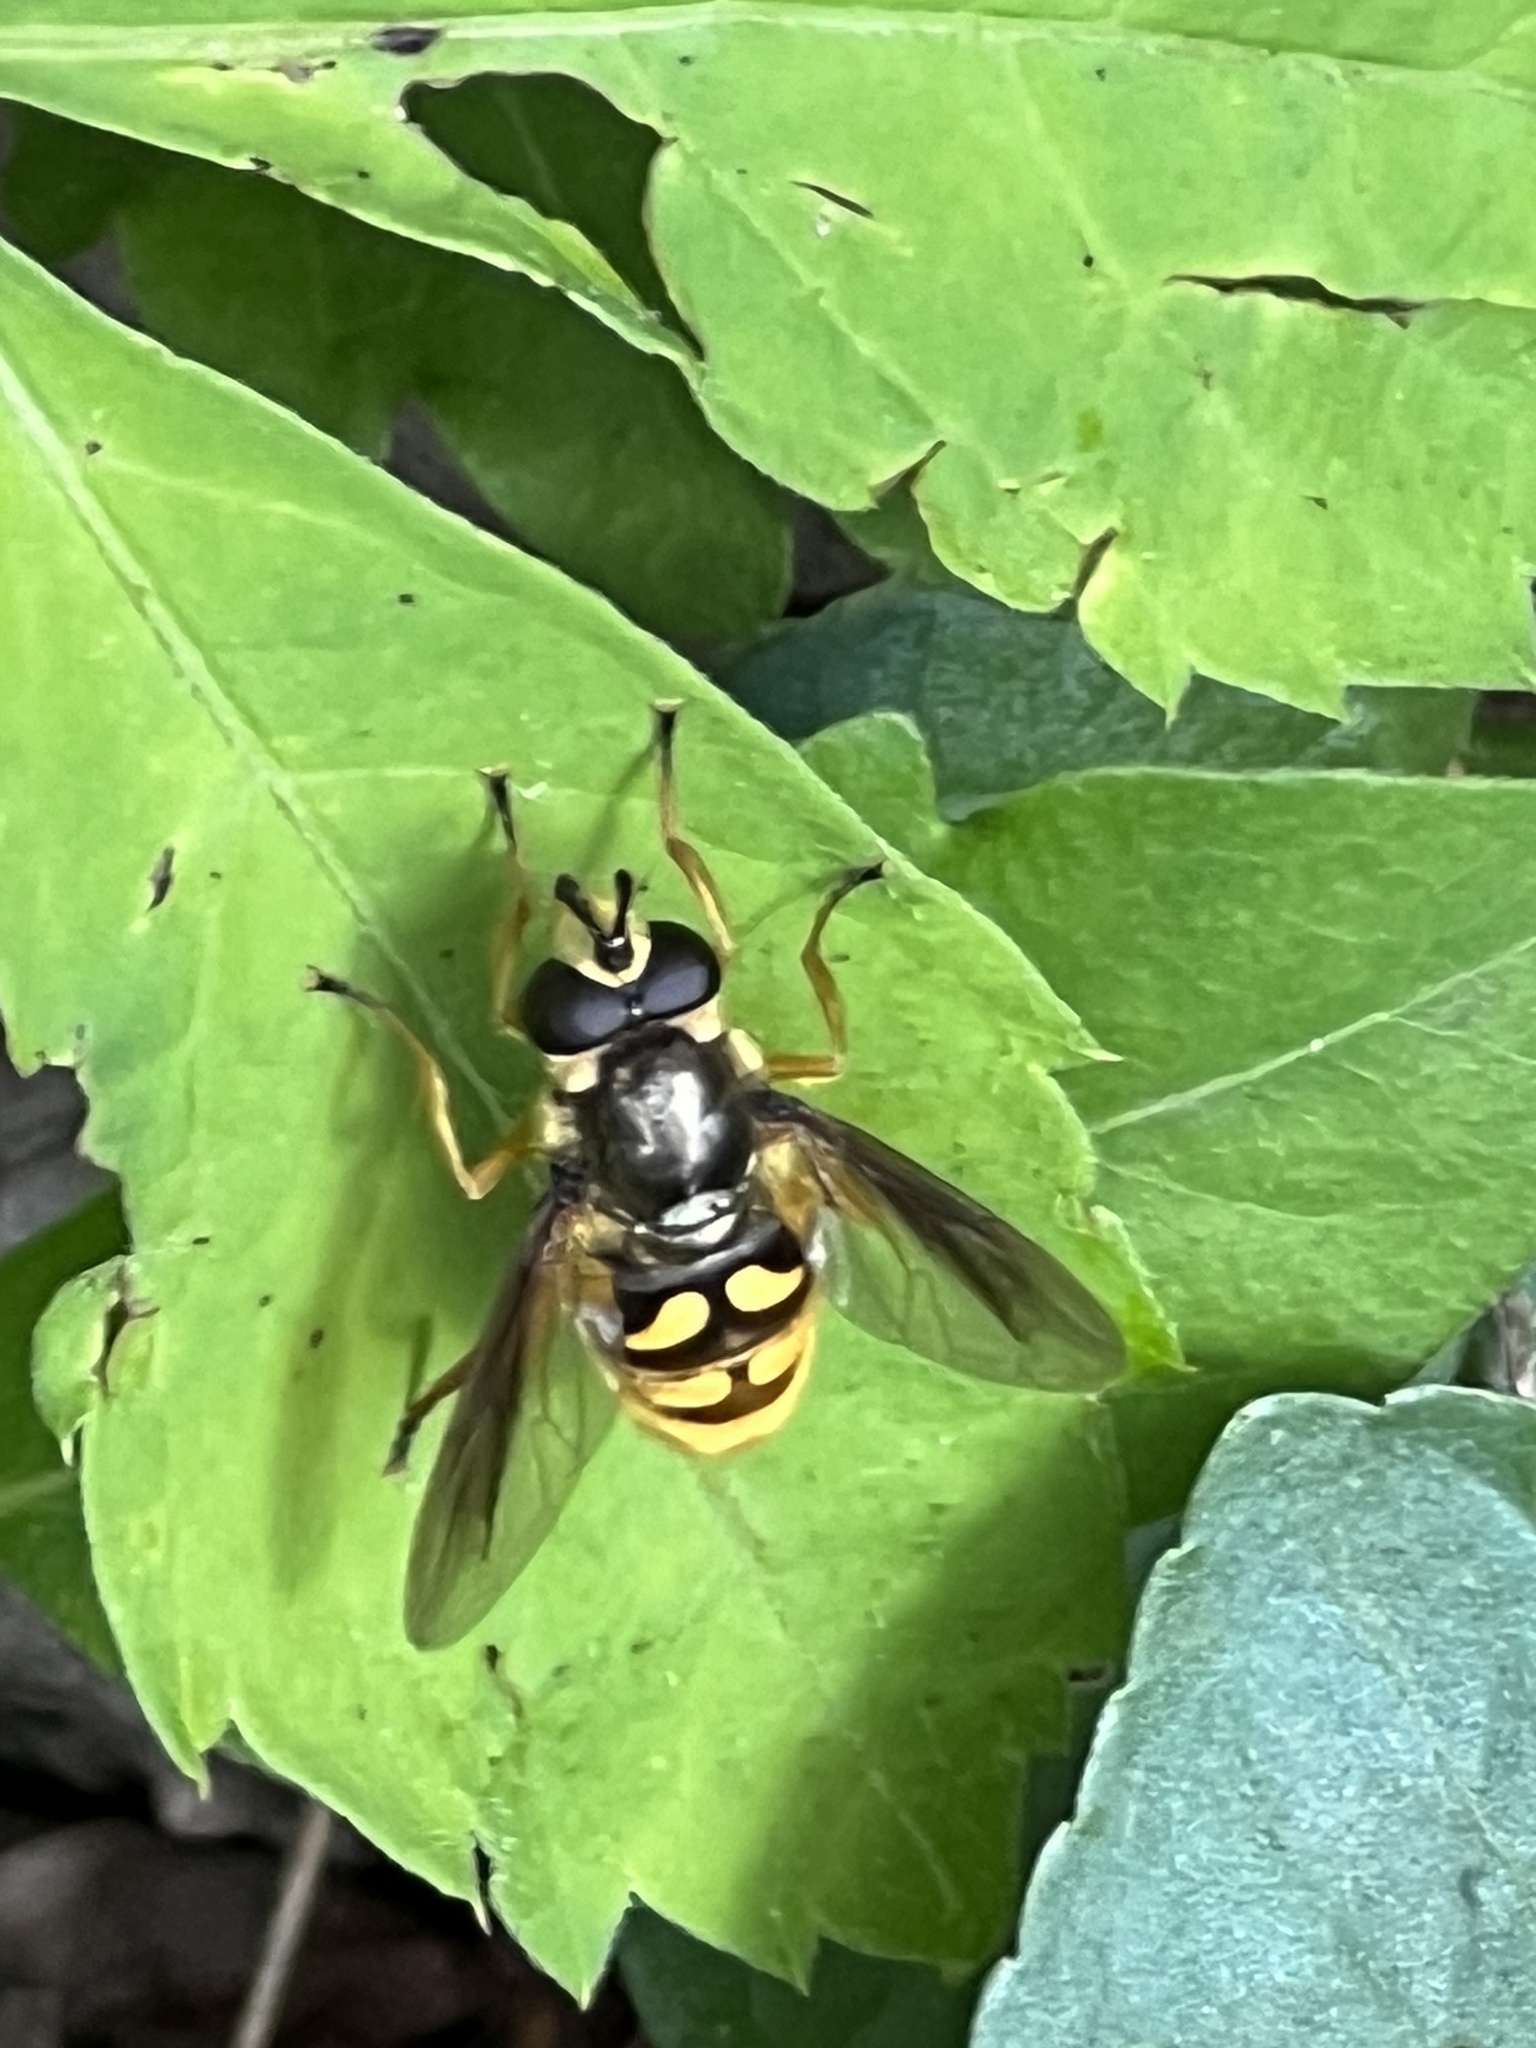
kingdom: Animalia
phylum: Arthropoda
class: Insecta
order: Diptera
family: Syrphidae
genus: Somula
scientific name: Somula decora
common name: Spotted wood fly
